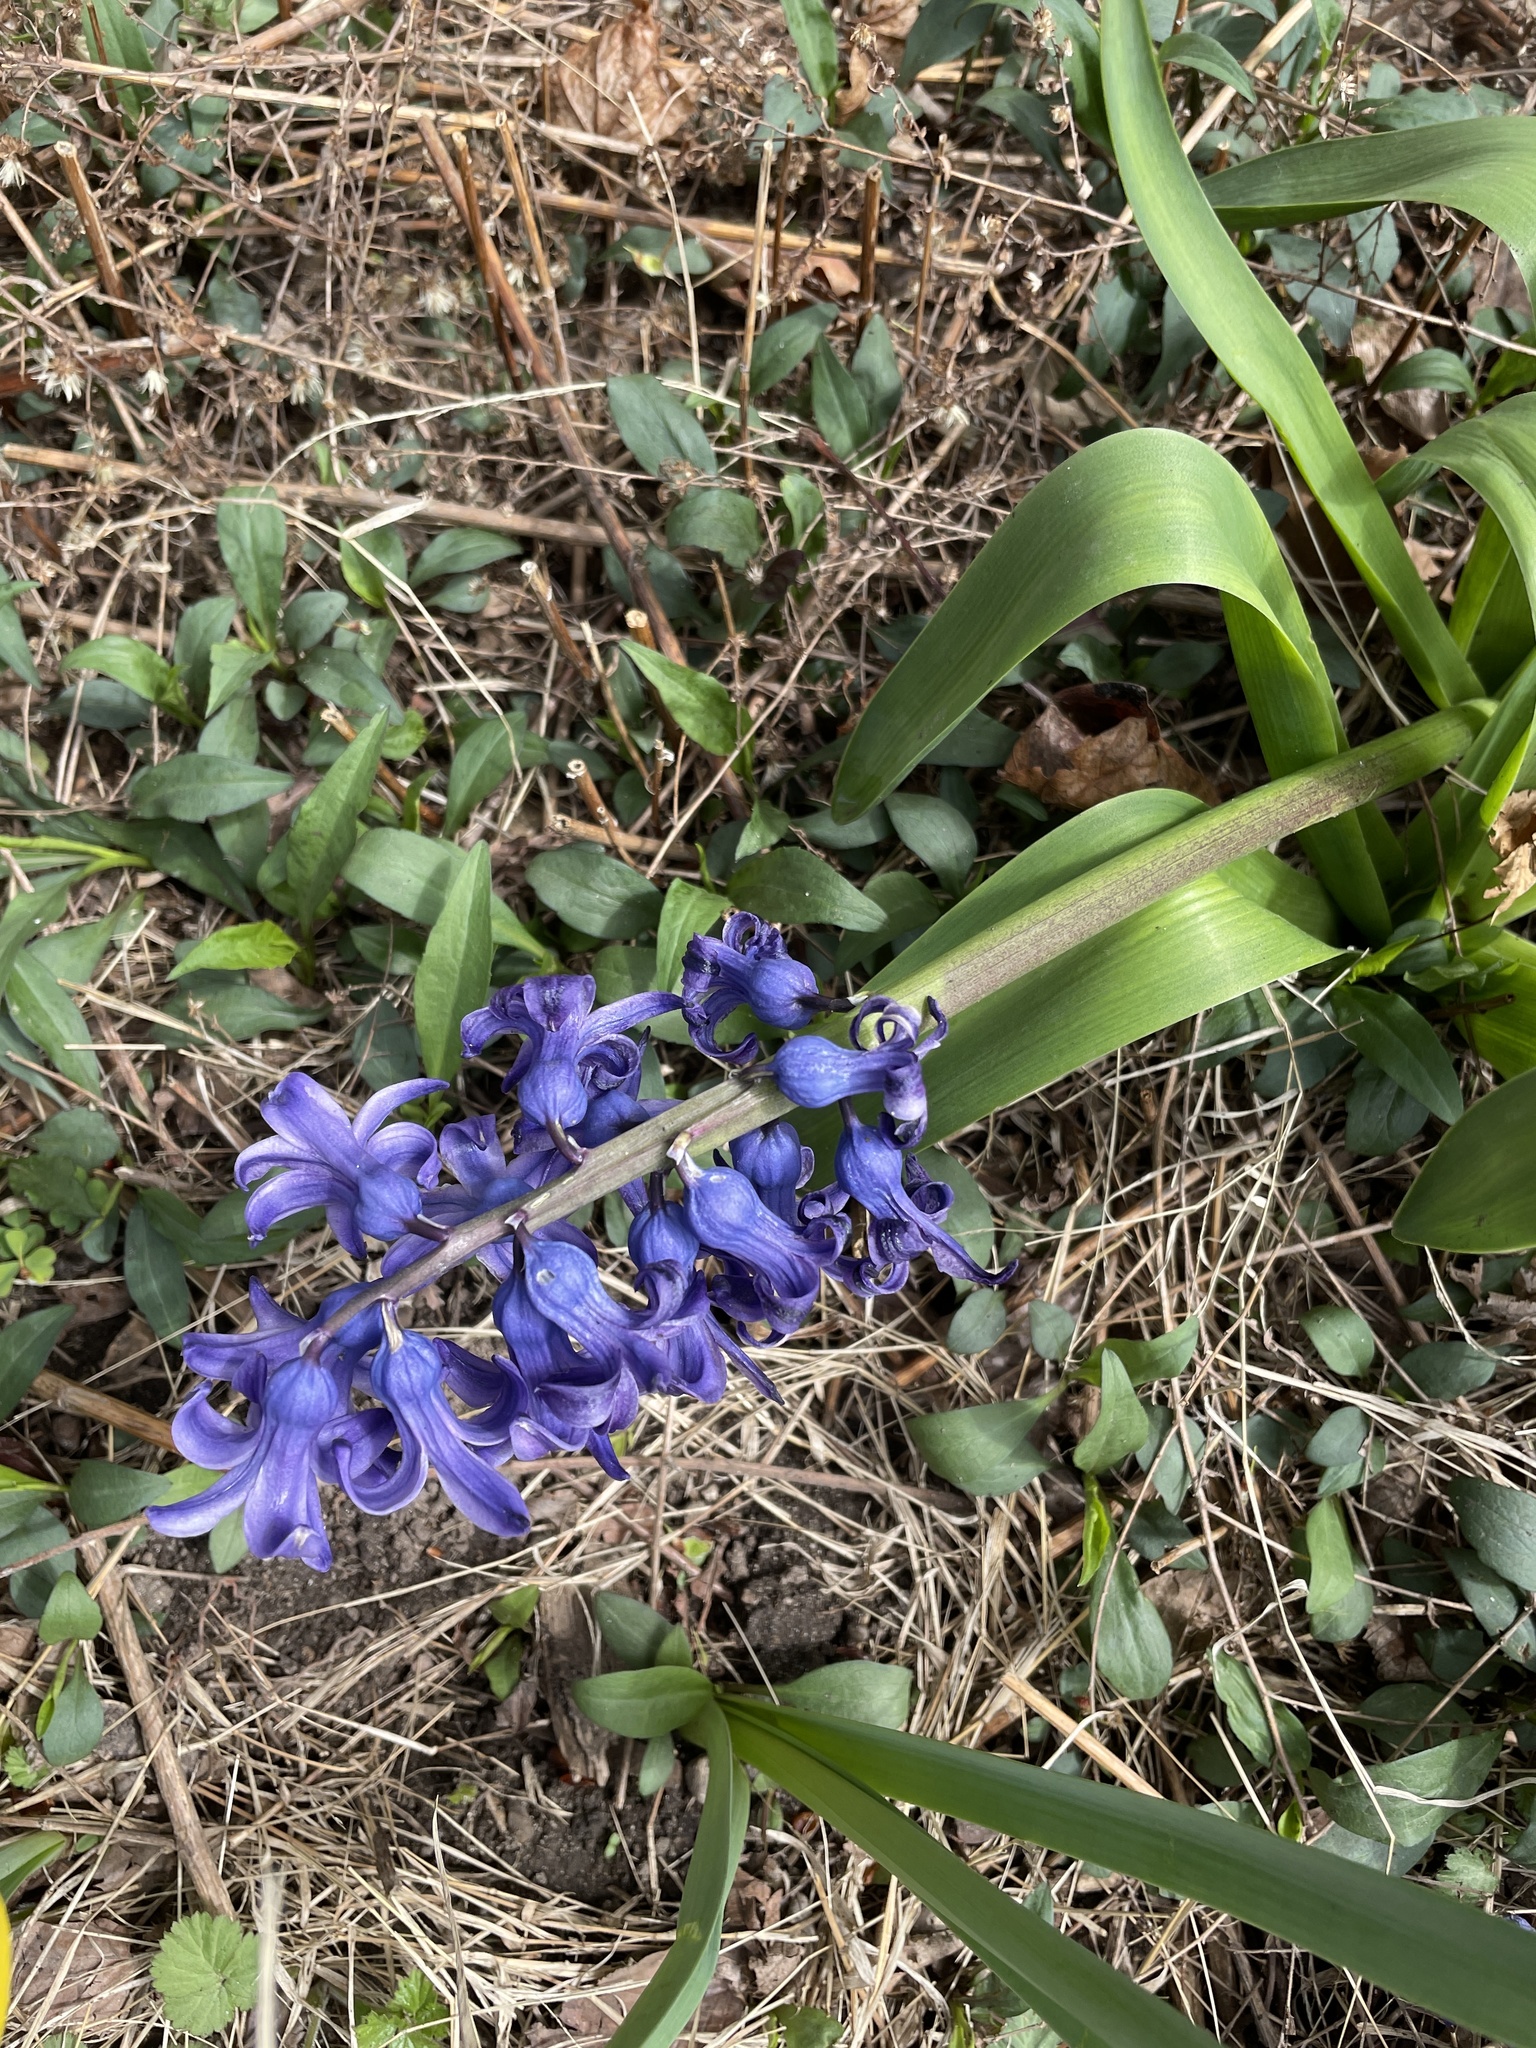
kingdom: Plantae
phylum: Tracheophyta
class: Liliopsida
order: Asparagales
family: Asparagaceae
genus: Hyacinthus
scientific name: Hyacinthus orientalis
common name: Hyacinth
